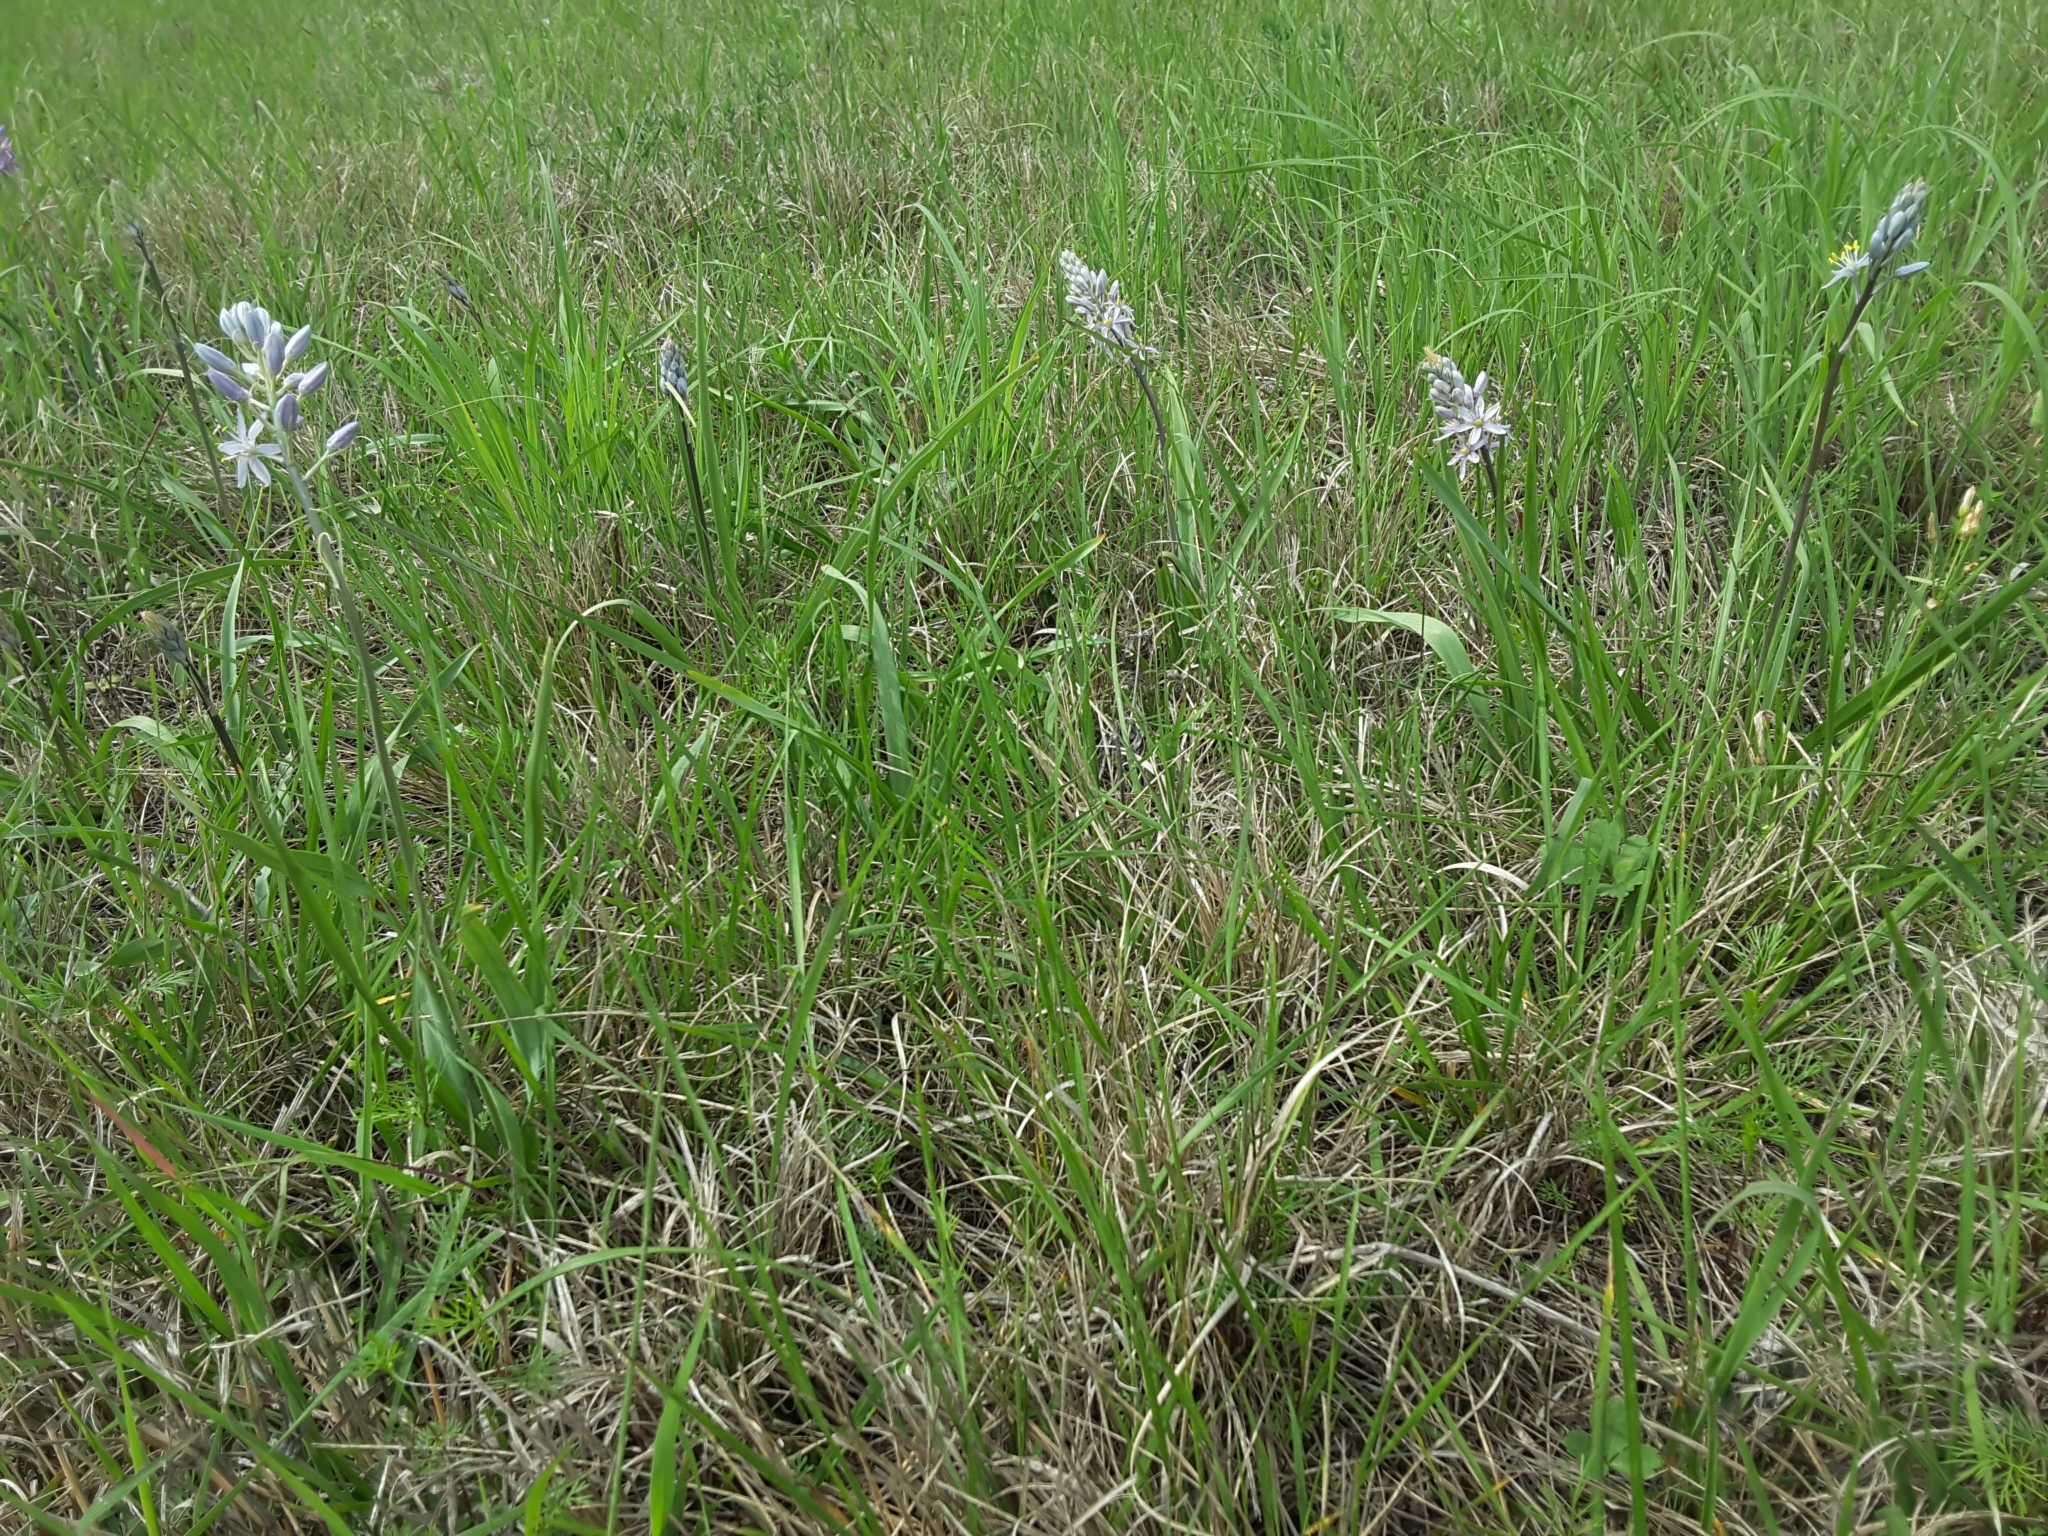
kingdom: Plantae
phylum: Tracheophyta
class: Liliopsida
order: Asparagales
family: Asparagaceae
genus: Camassia
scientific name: Camassia scilloides
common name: Wild hyacinth
